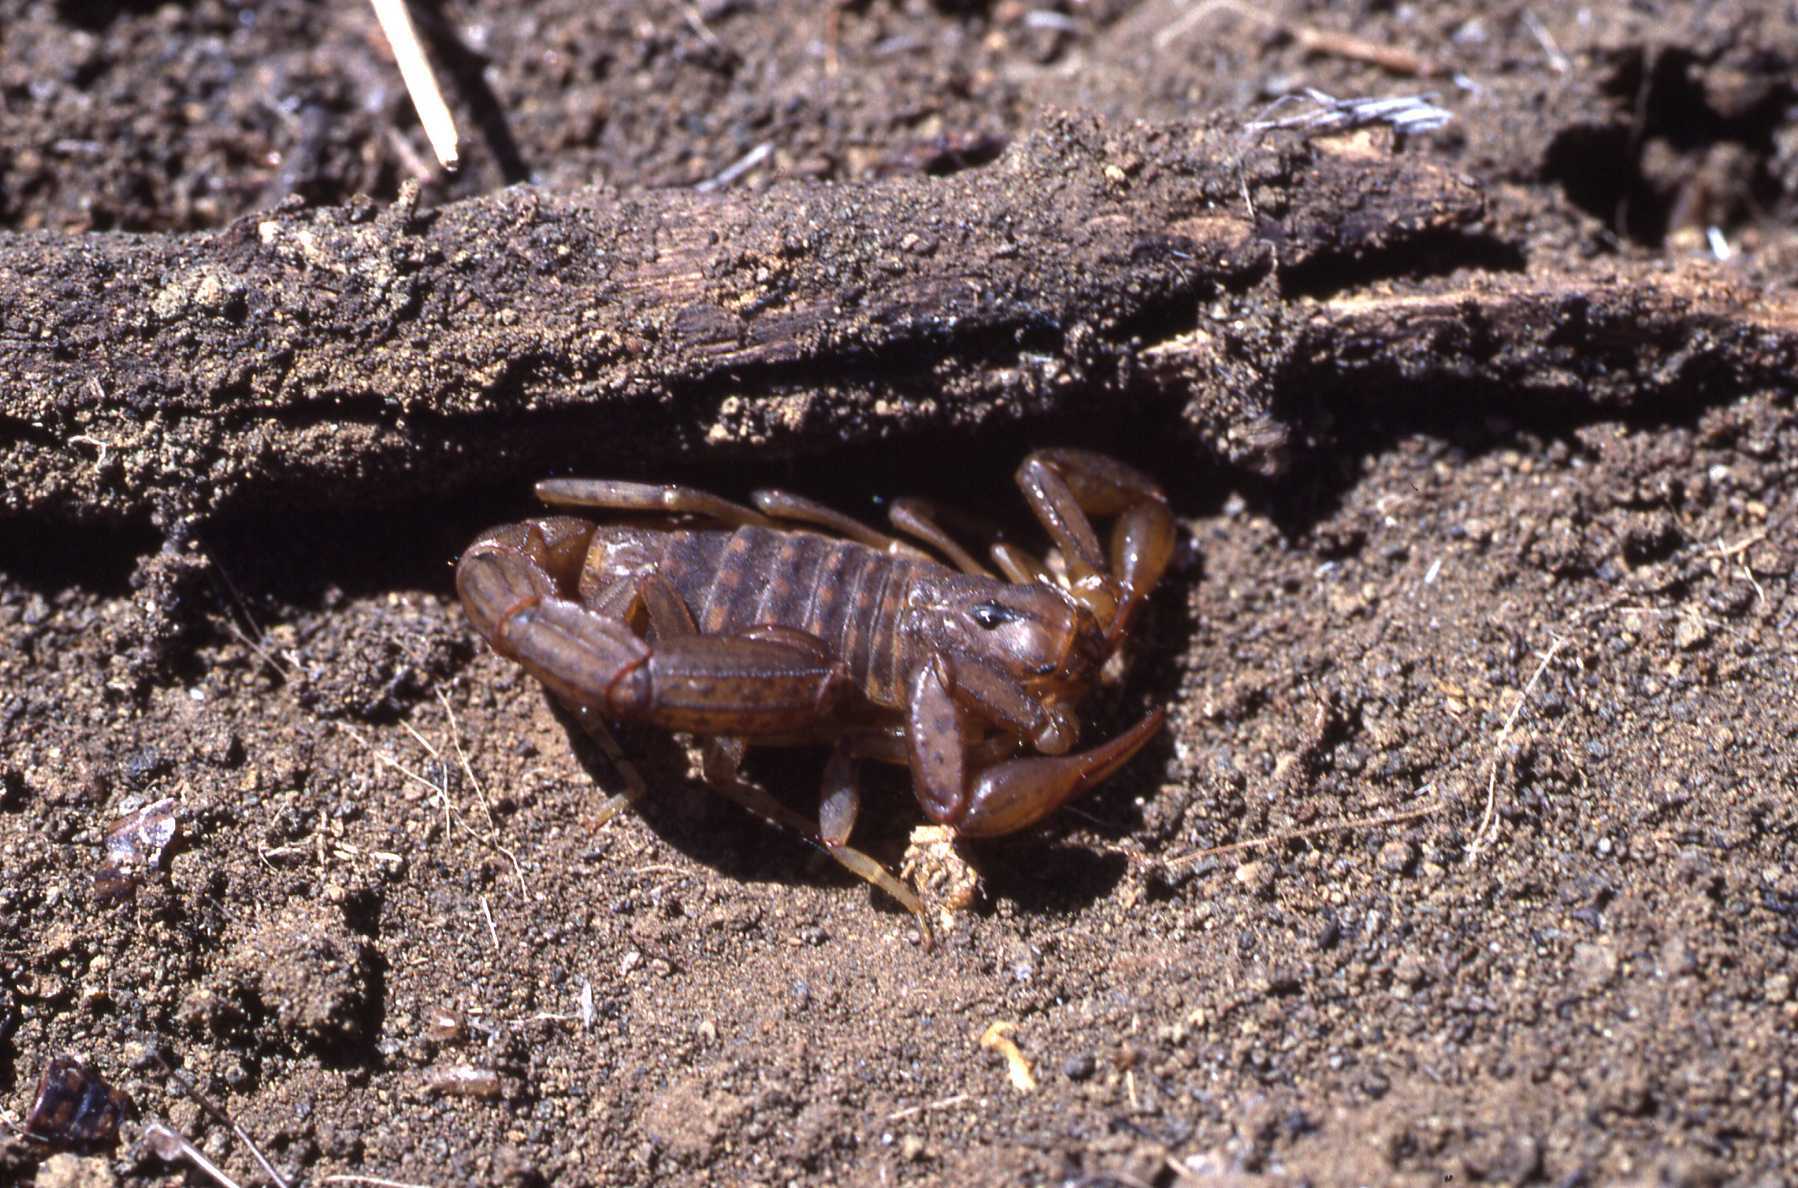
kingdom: Animalia
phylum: Arthropoda
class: Arachnida
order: Scorpiones
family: Caraboctonidae
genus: Hadruroides
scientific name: Hadruroides galapagoensis
